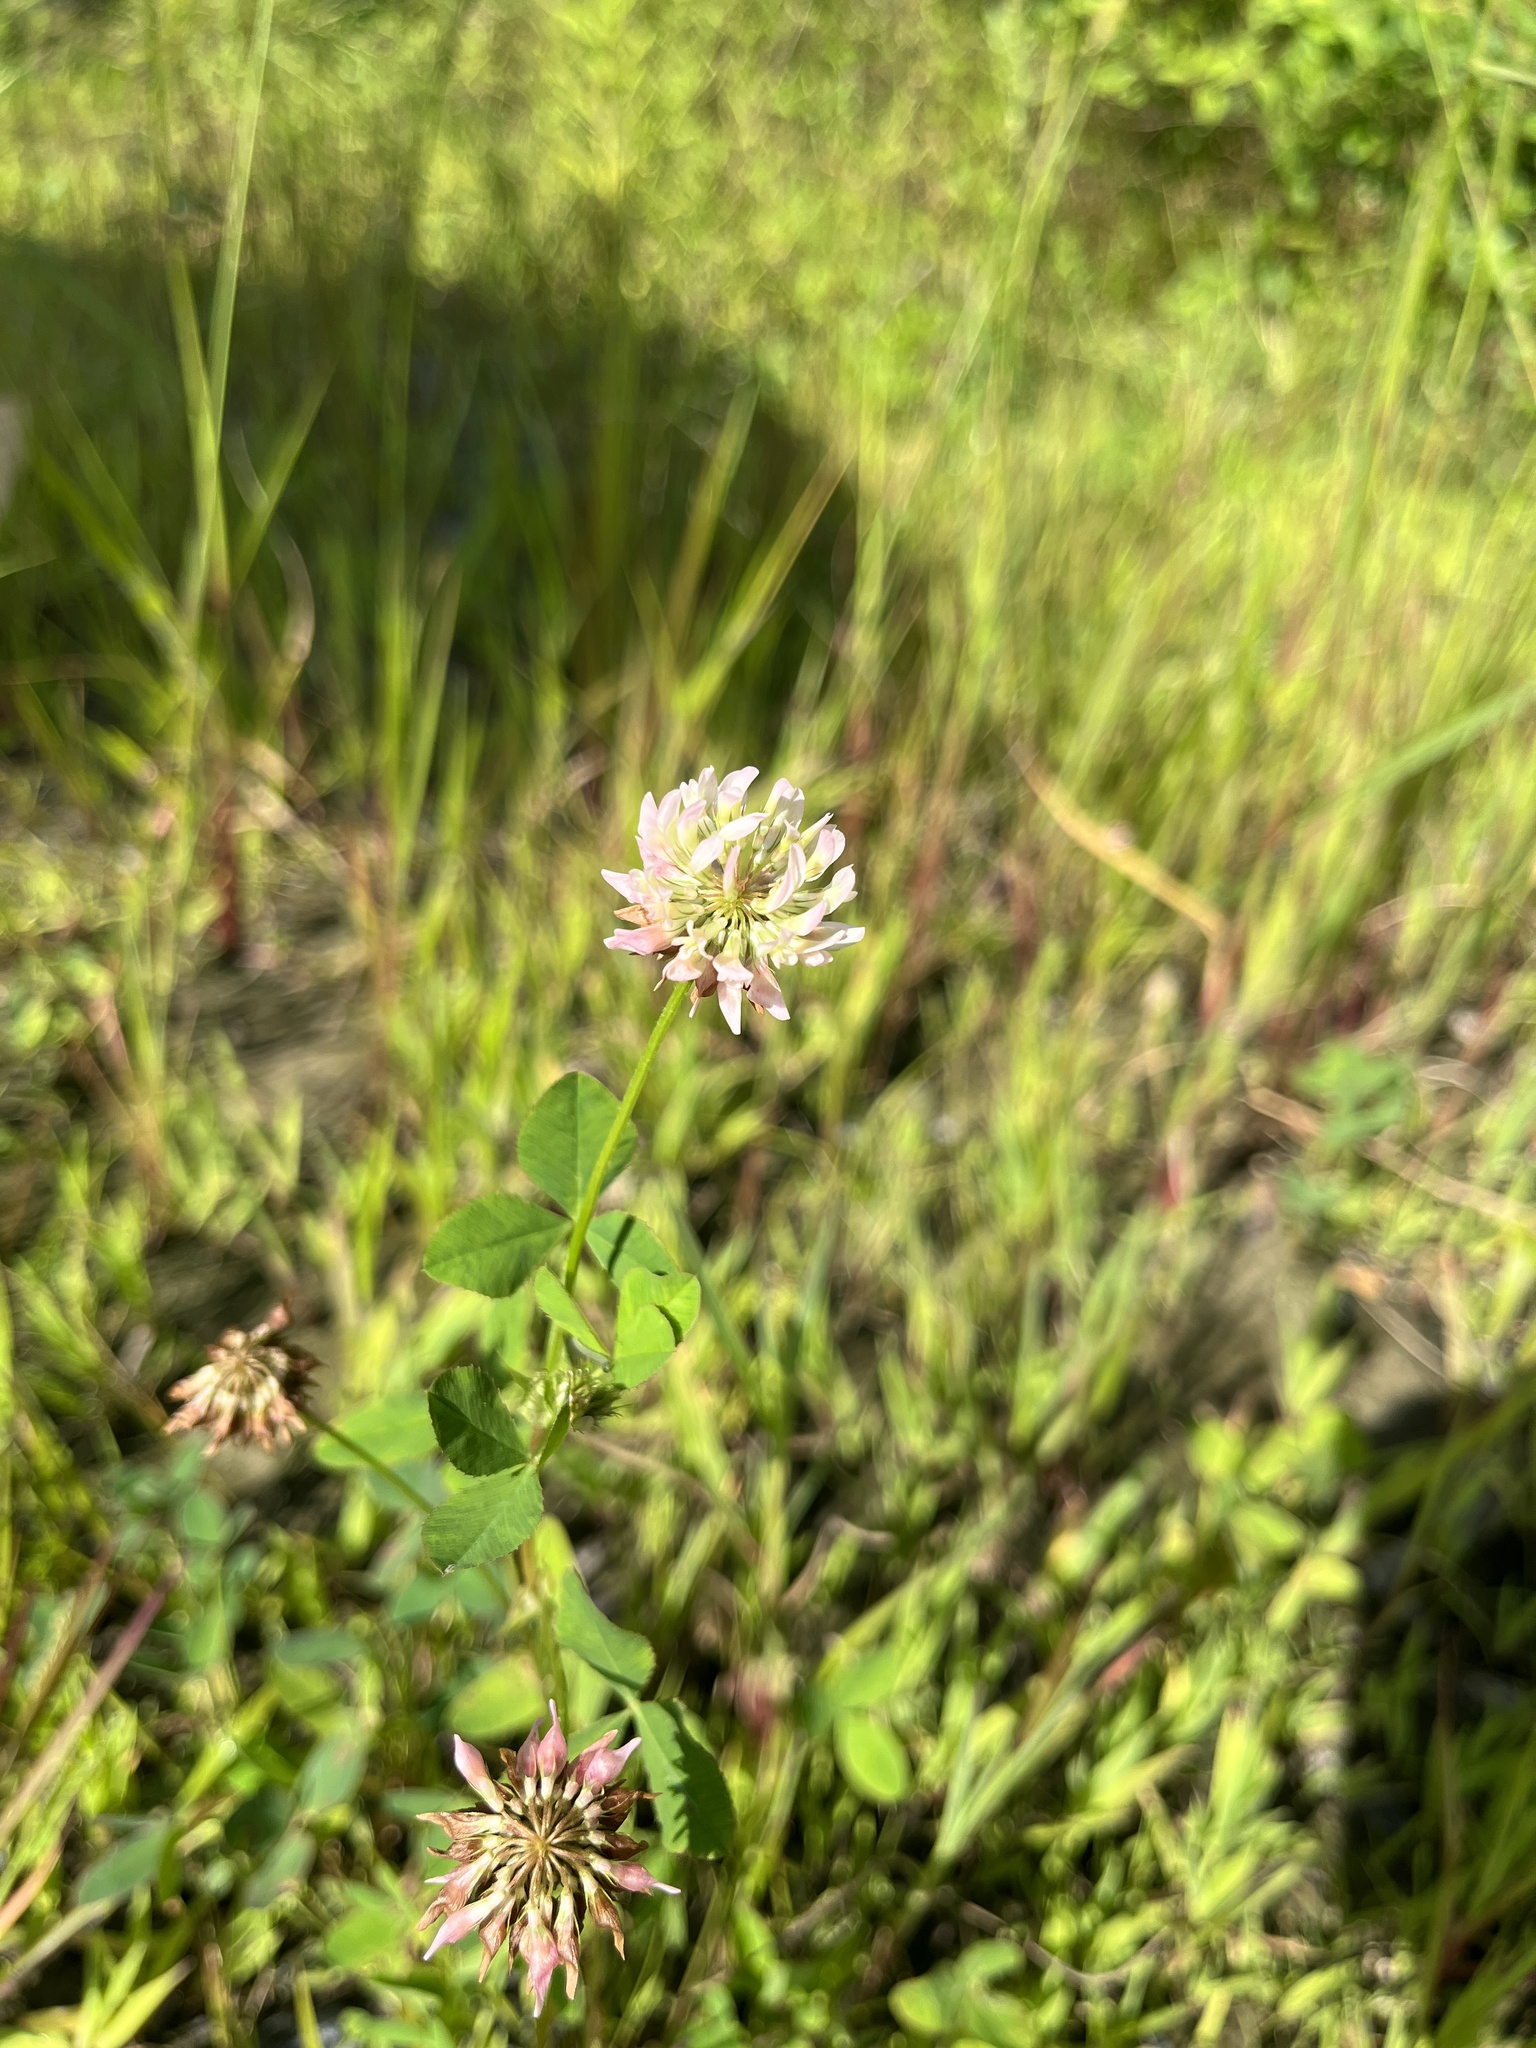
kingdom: Plantae
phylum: Tracheophyta
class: Magnoliopsida
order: Fabales
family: Fabaceae
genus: Trifolium
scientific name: Trifolium hybridum
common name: Alsike clover
